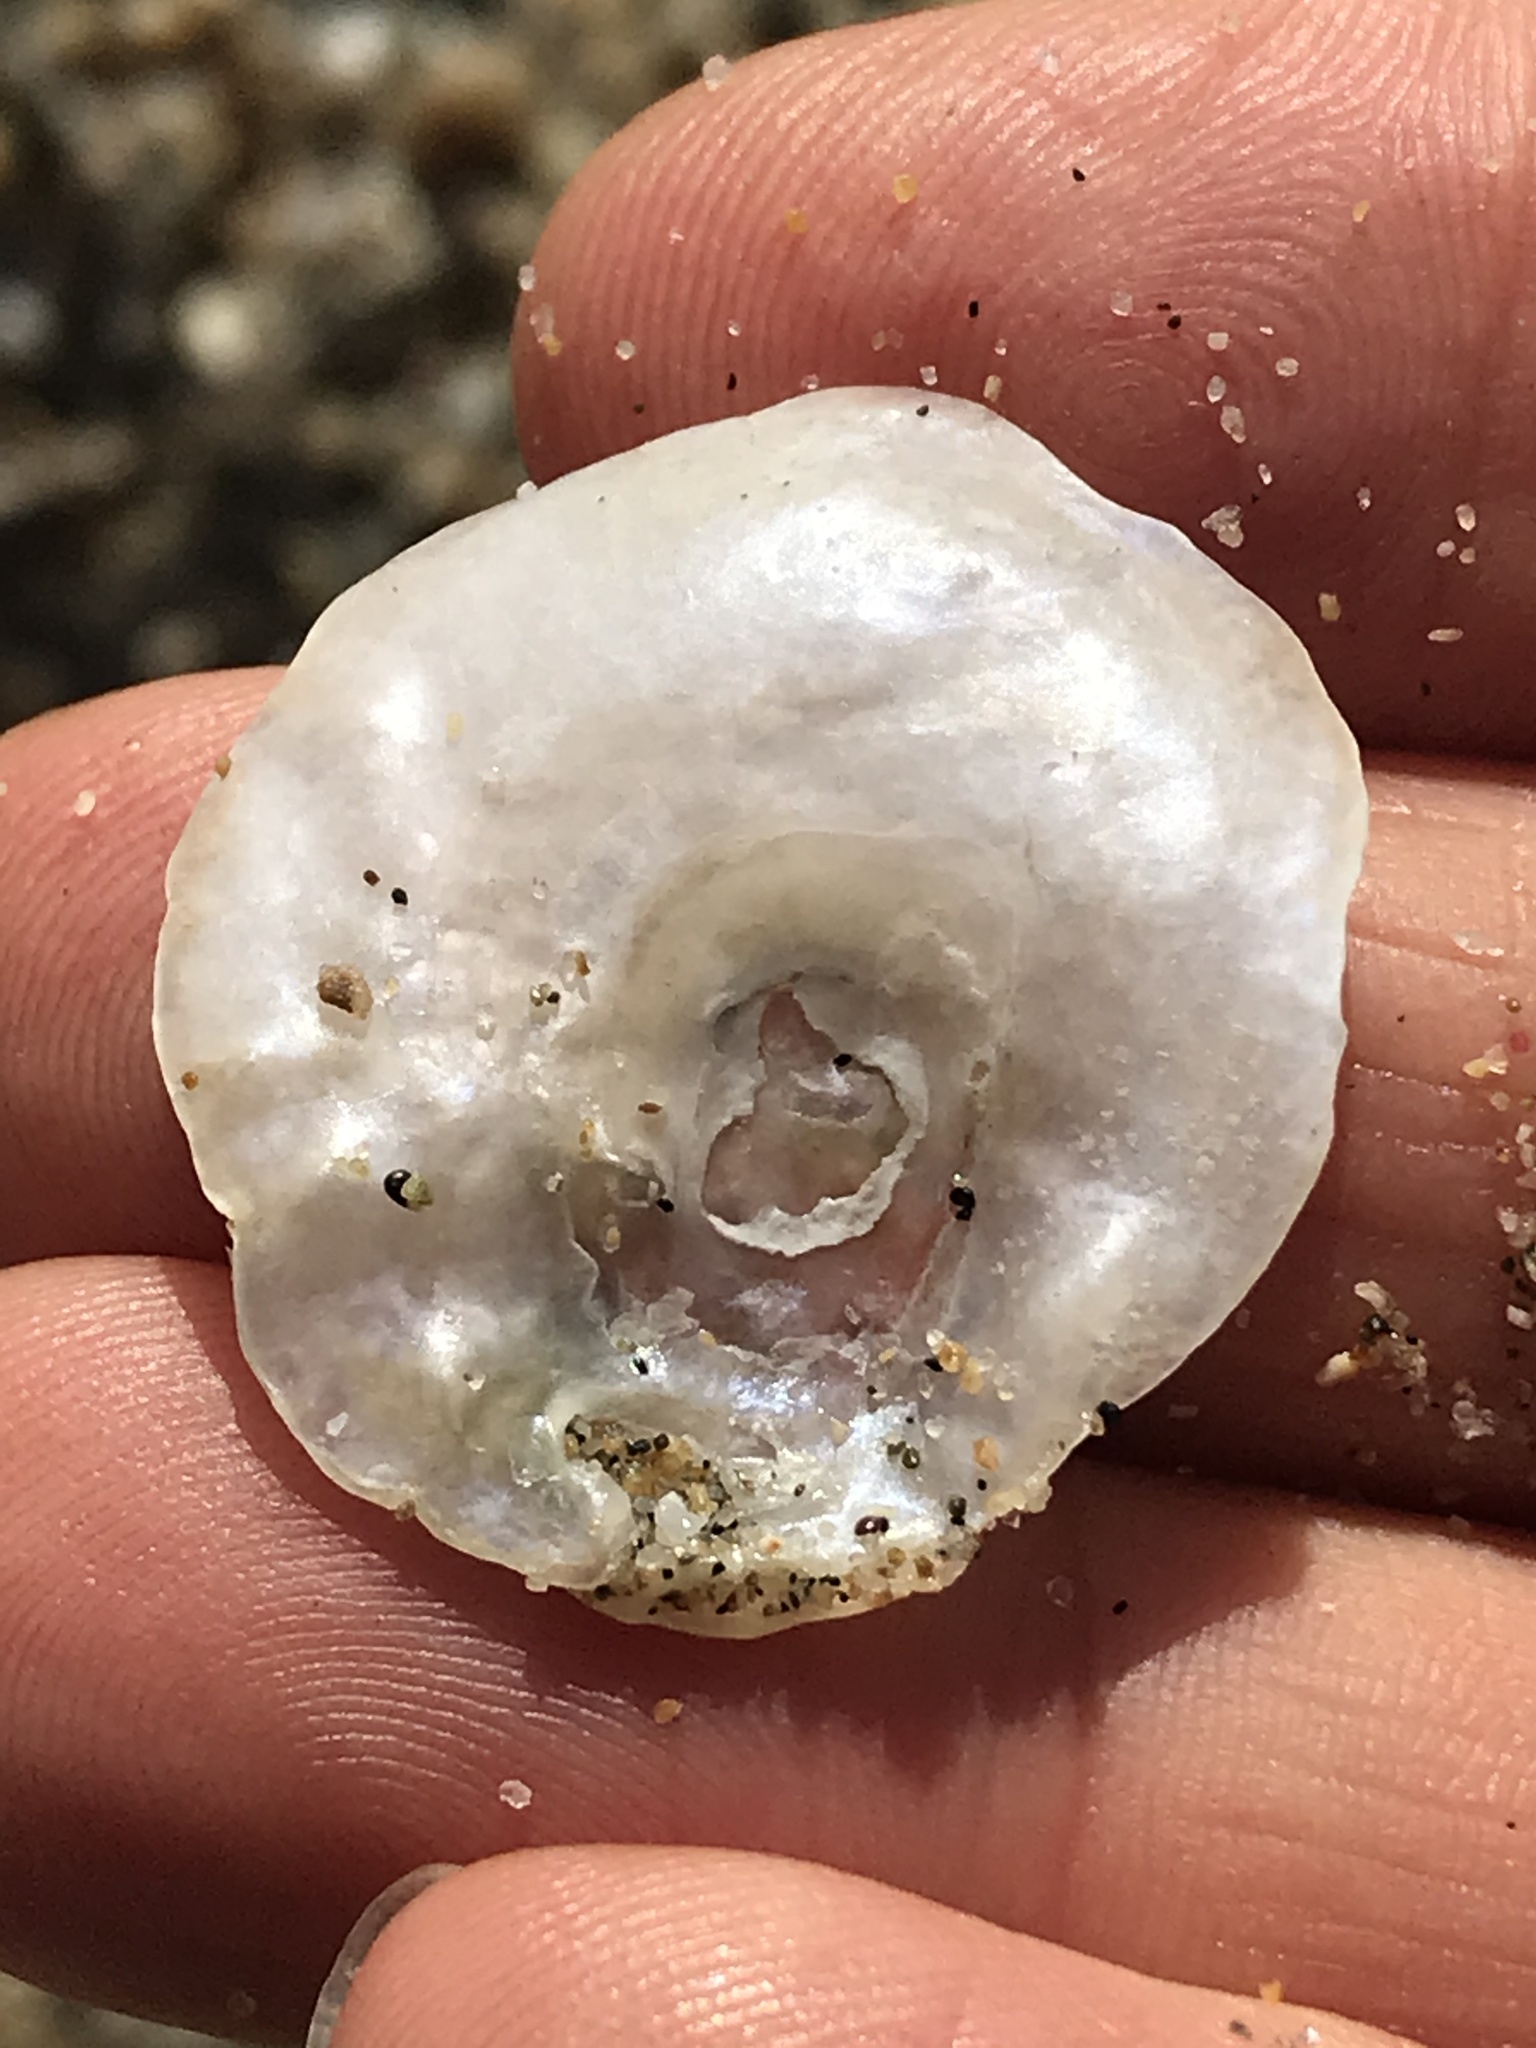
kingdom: Animalia
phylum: Mollusca
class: Bivalvia
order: Pectinida
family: Anomiidae
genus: Pododesmus
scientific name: Pododesmus macrochisma
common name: Alaska jingle
